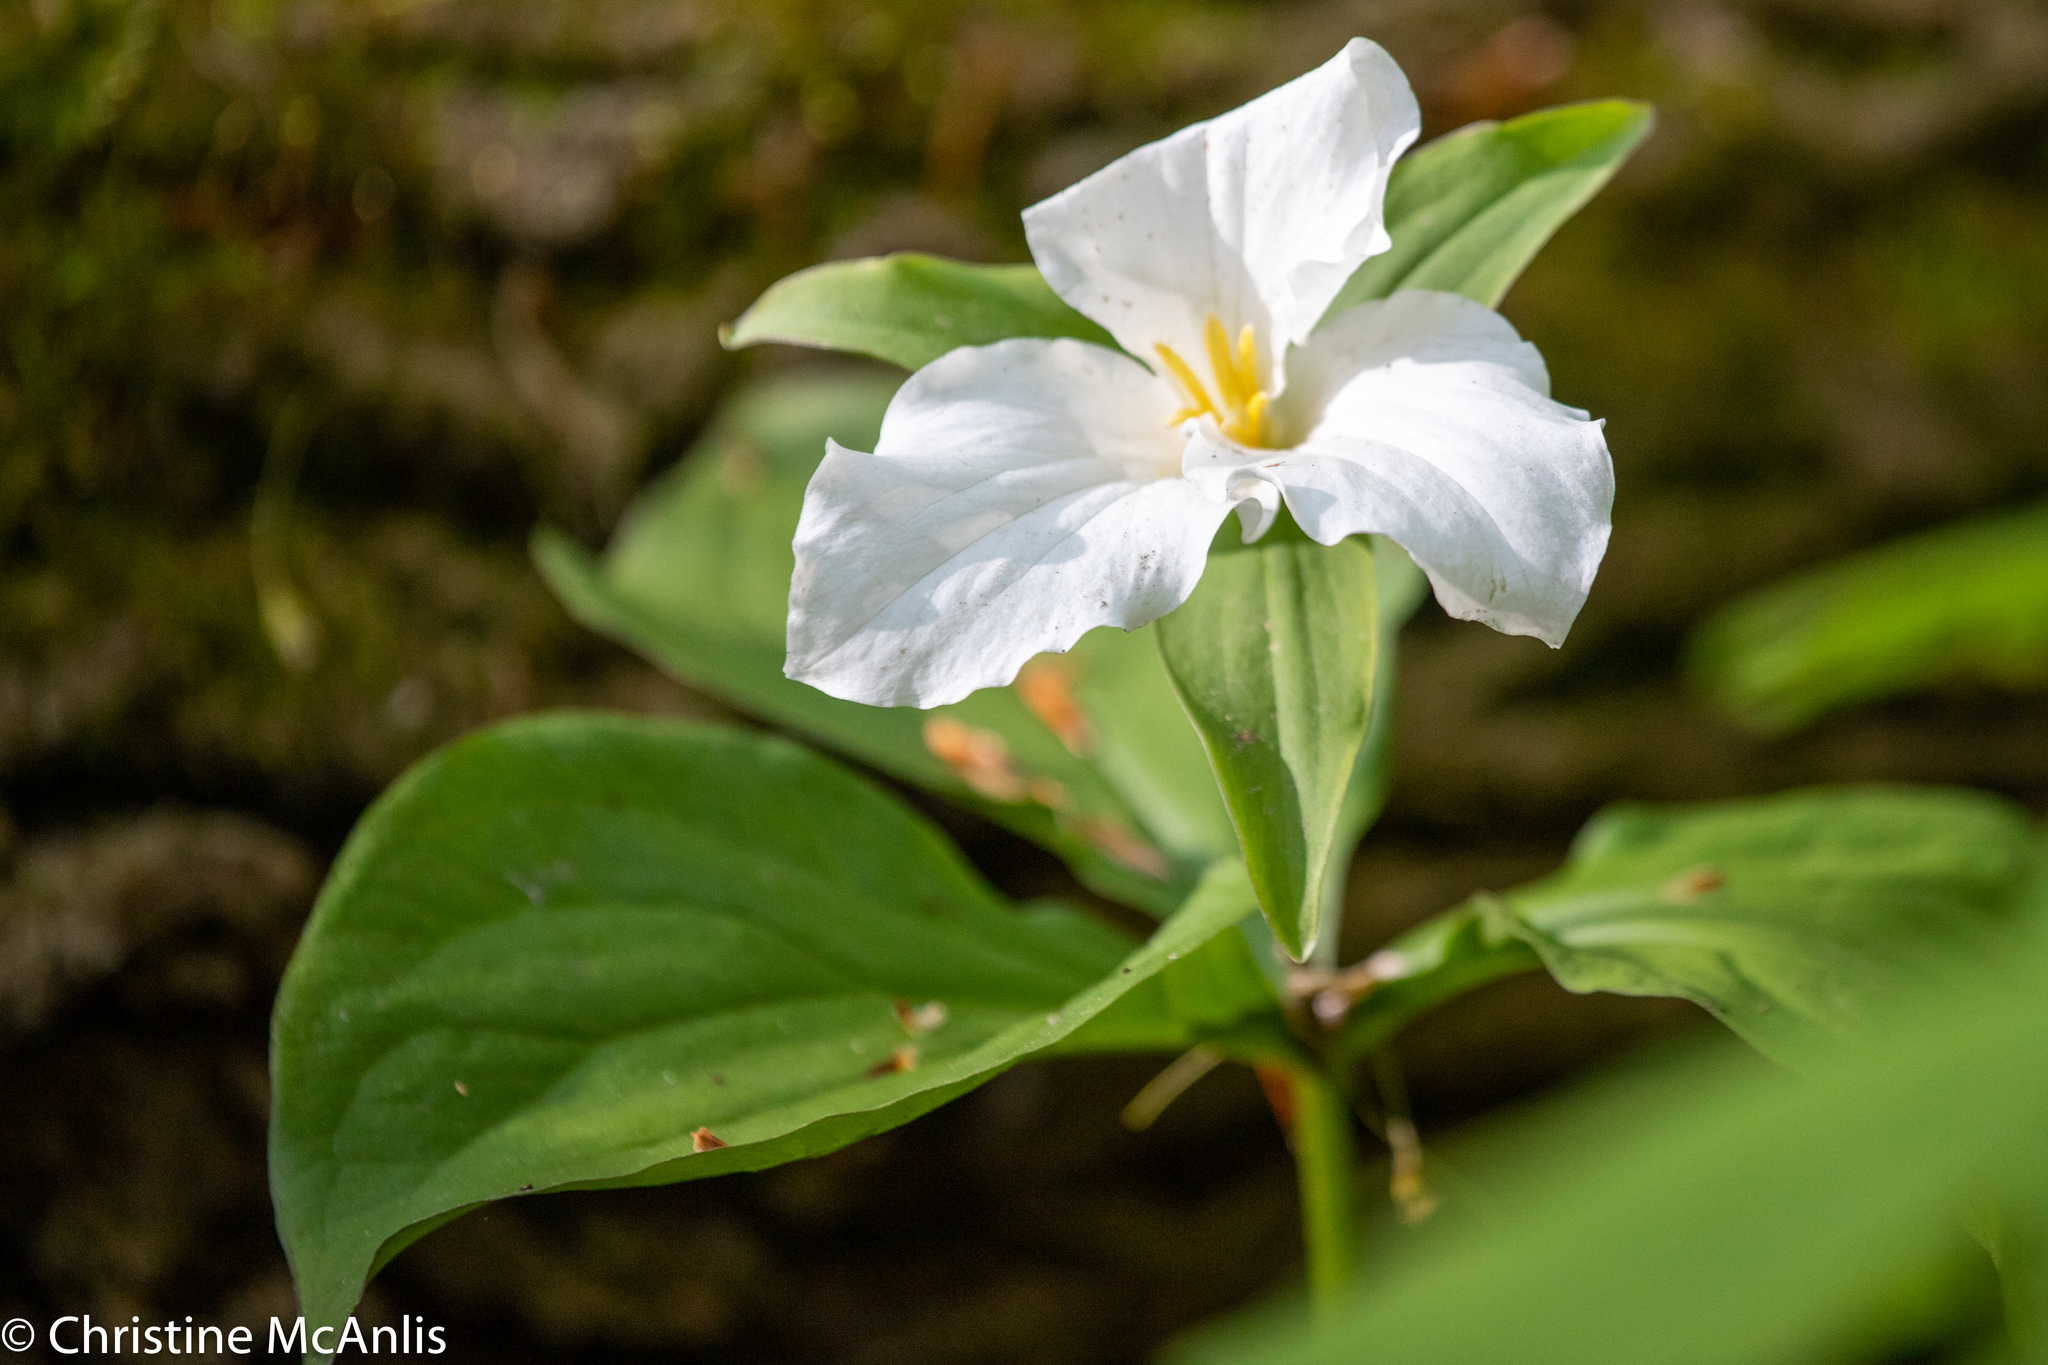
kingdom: Plantae
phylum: Tracheophyta
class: Liliopsida
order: Liliales
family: Melanthiaceae
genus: Trillium
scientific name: Trillium grandiflorum
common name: Great white trillium
